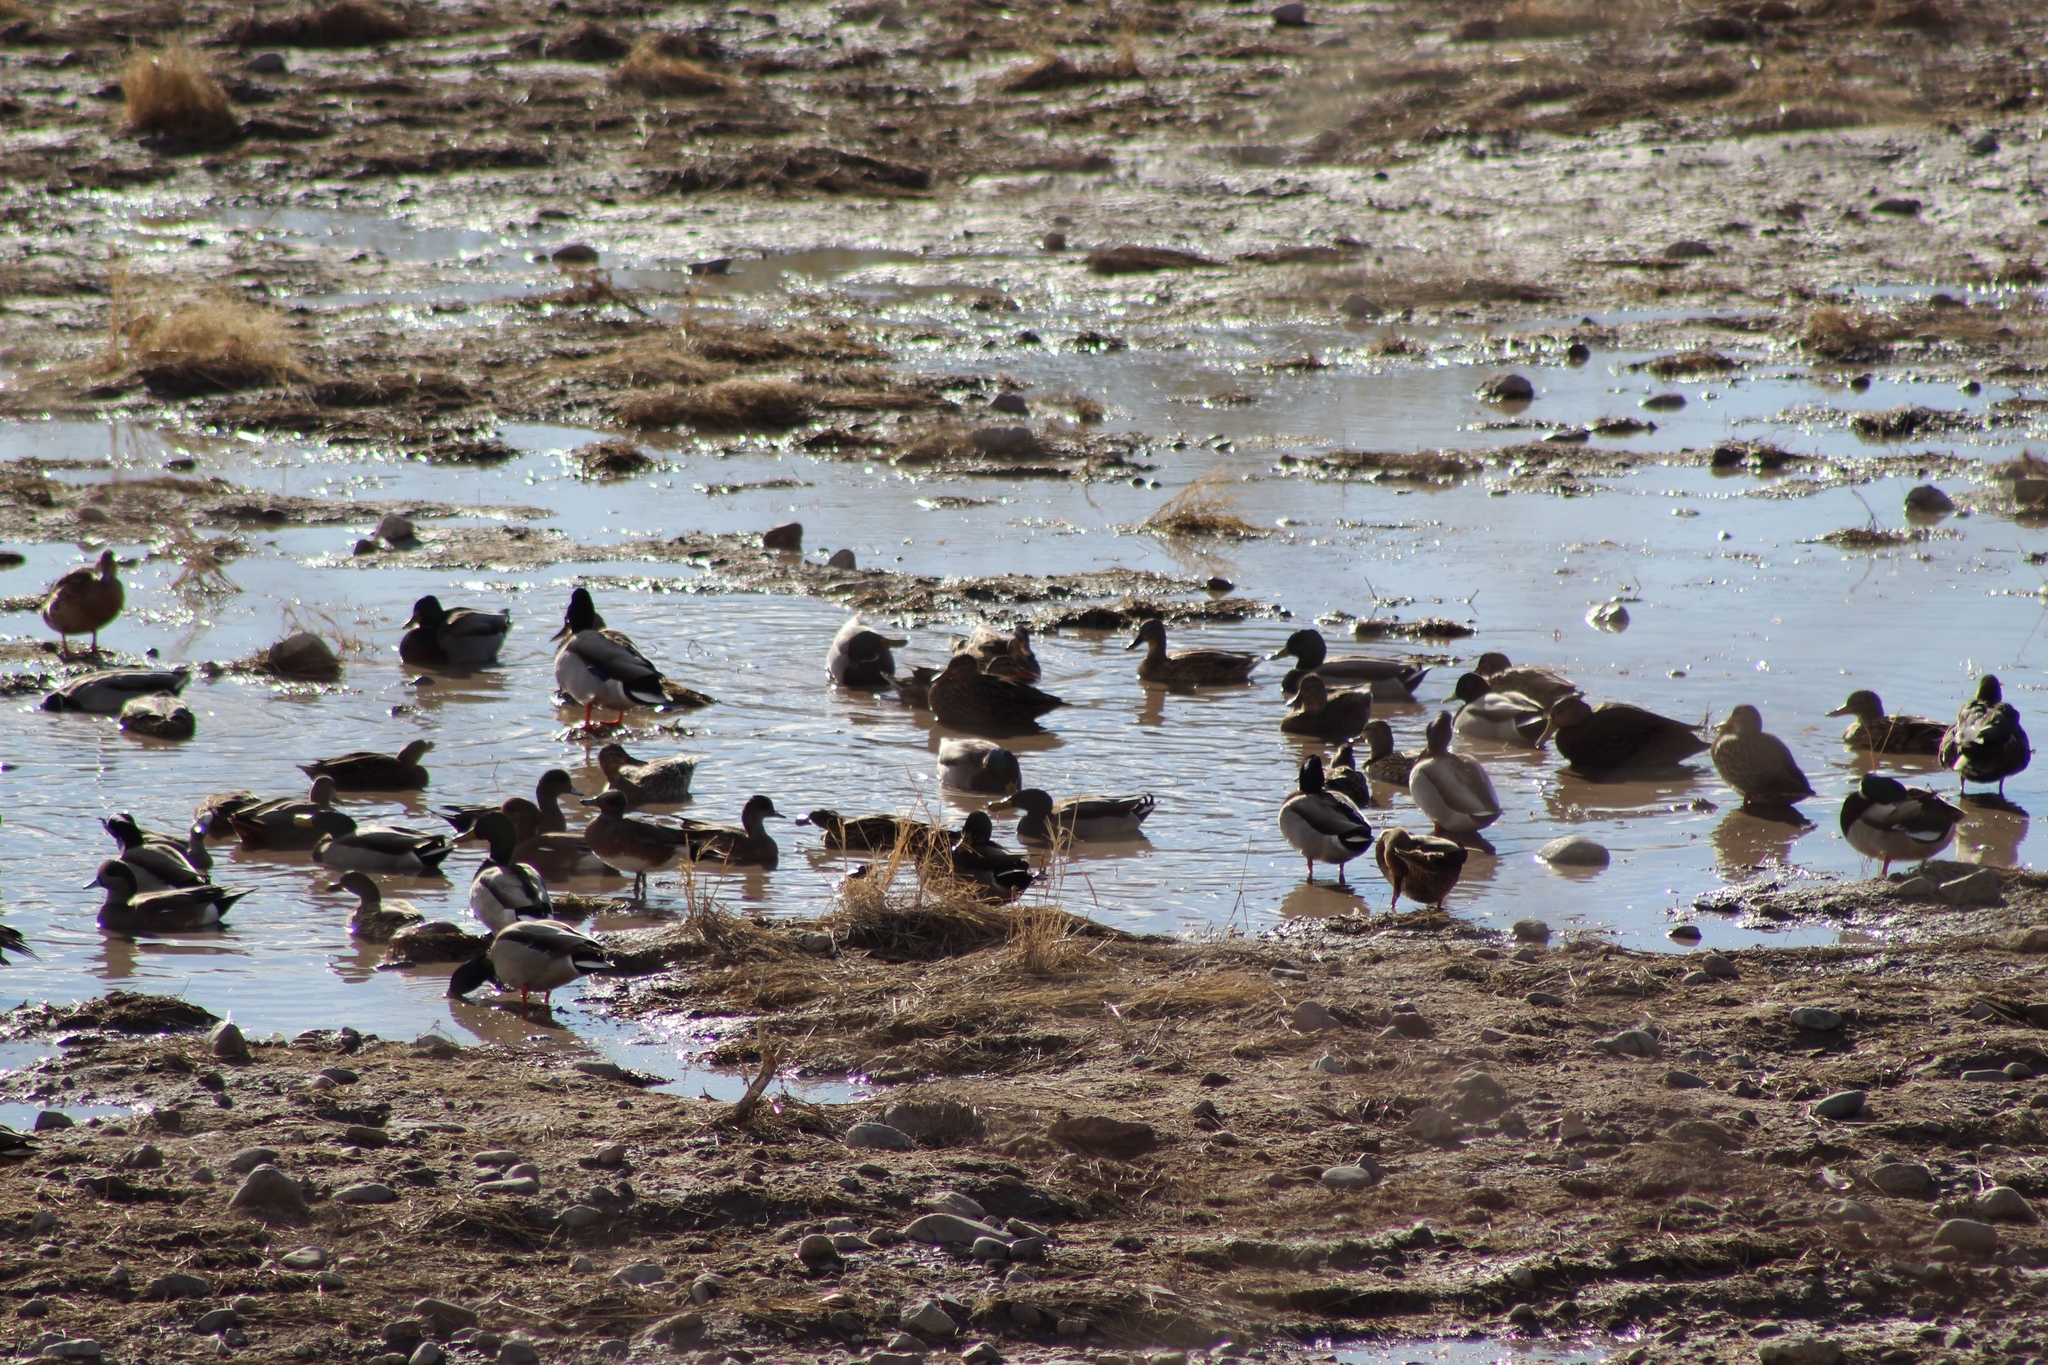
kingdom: Animalia
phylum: Chordata
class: Aves
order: Anseriformes
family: Anatidae
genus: Anas
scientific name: Anas platyrhynchos
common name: Mallard
